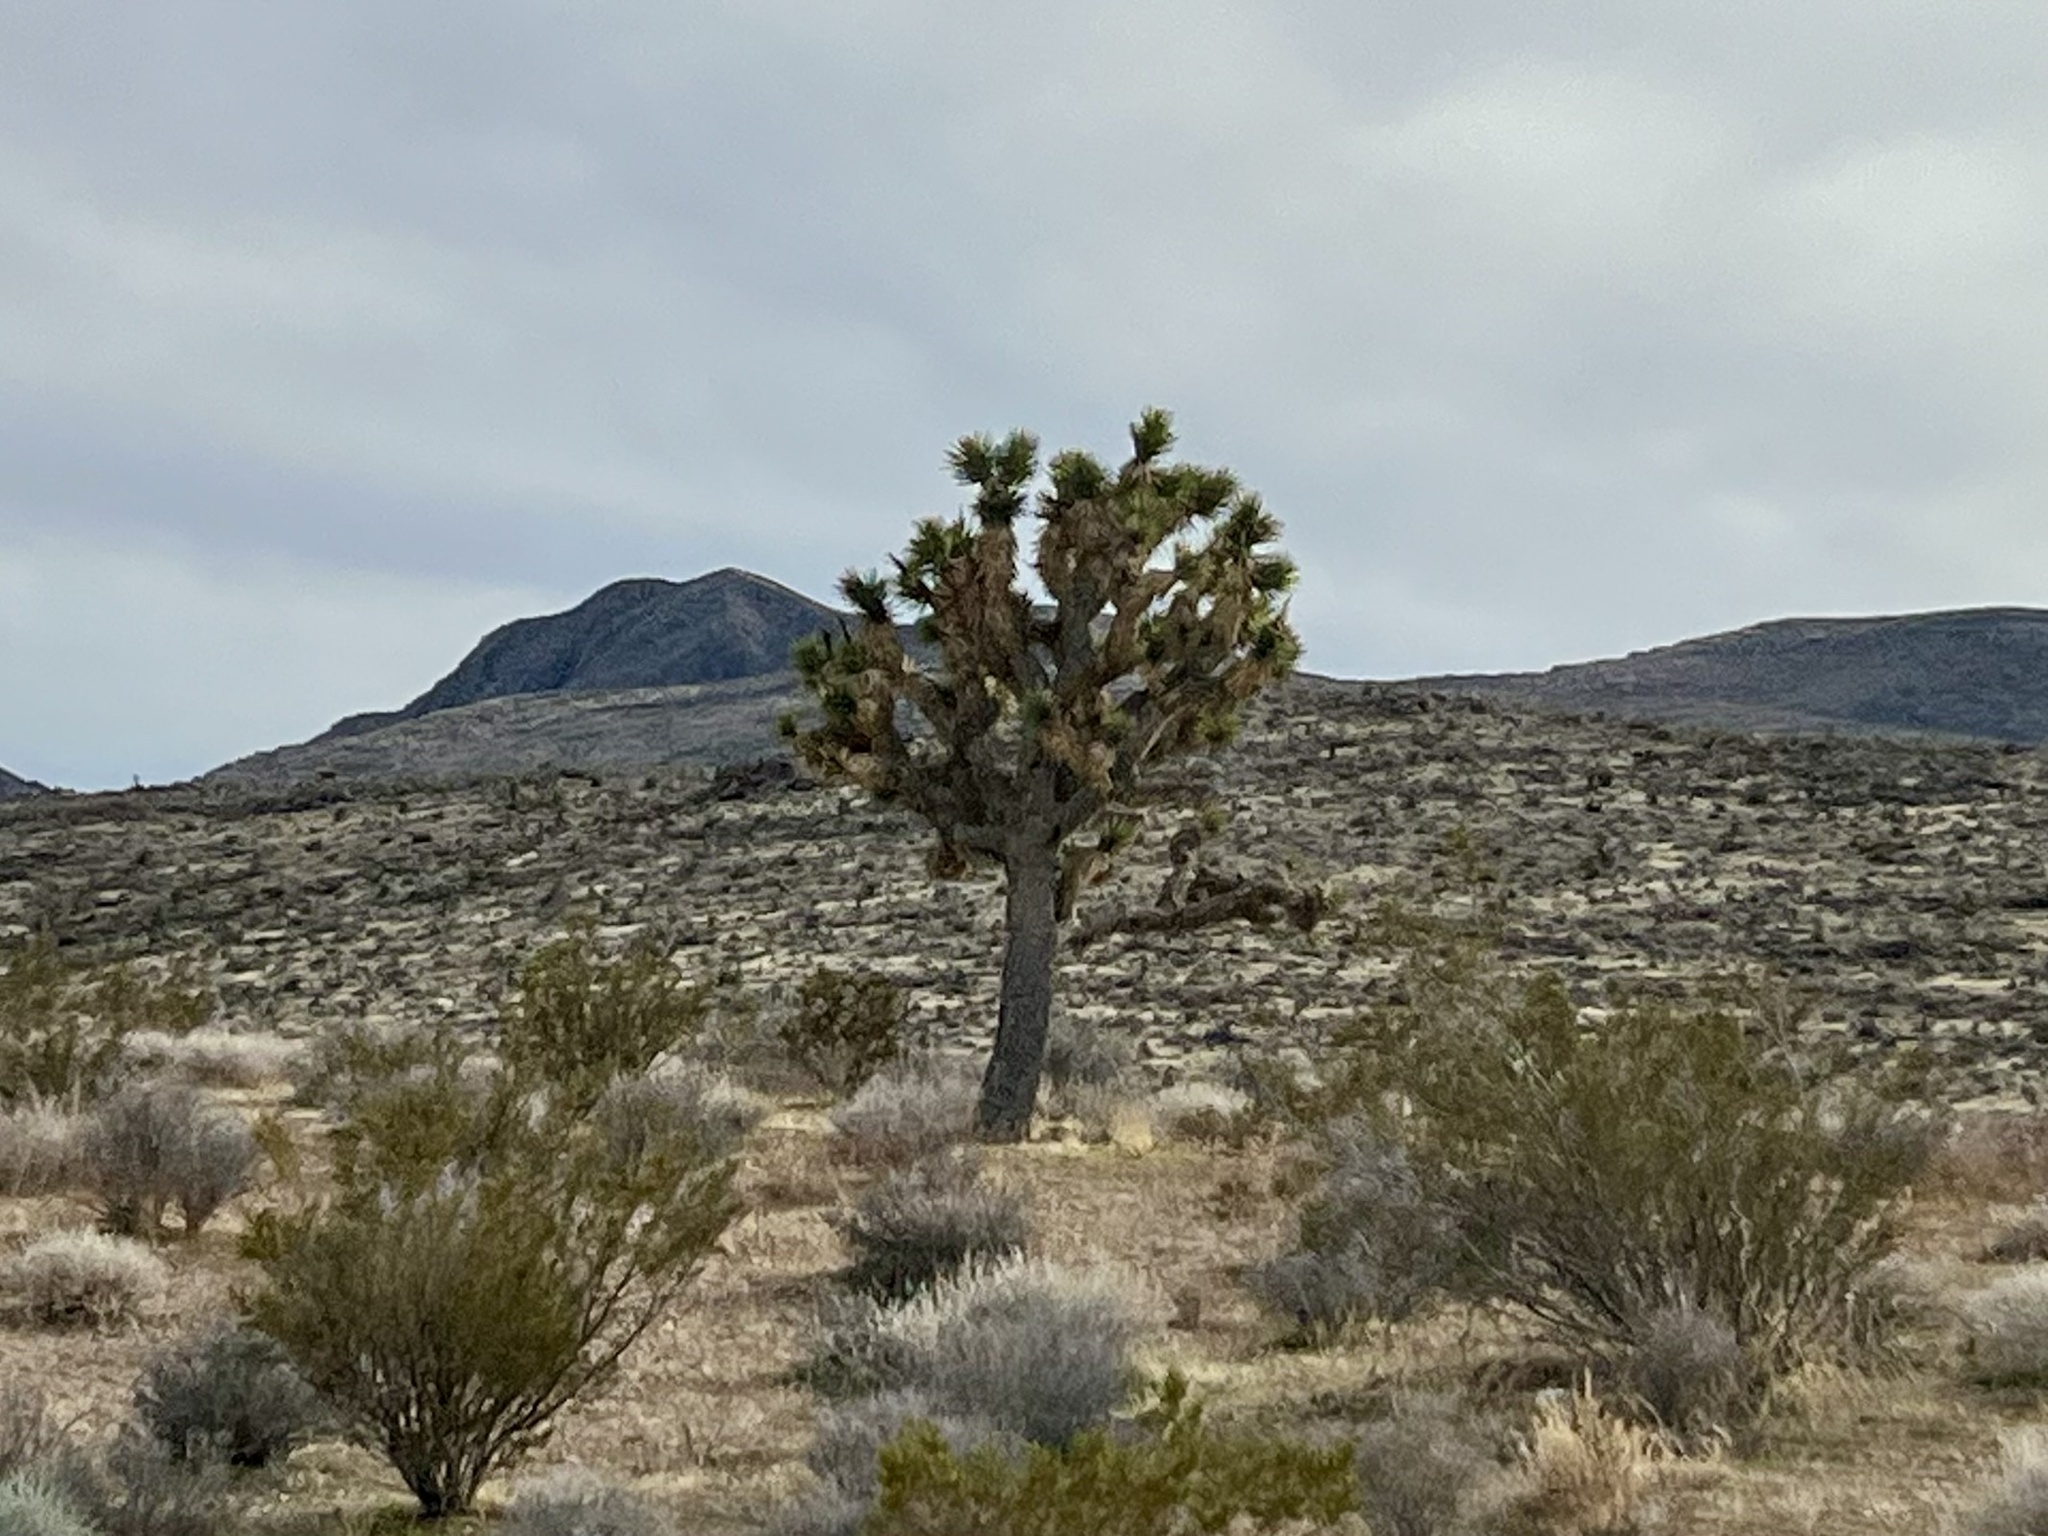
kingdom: Plantae
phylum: Tracheophyta
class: Liliopsida
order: Asparagales
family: Asparagaceae
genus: Yucca
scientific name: Yucca brevifolia
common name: Joshua tree
